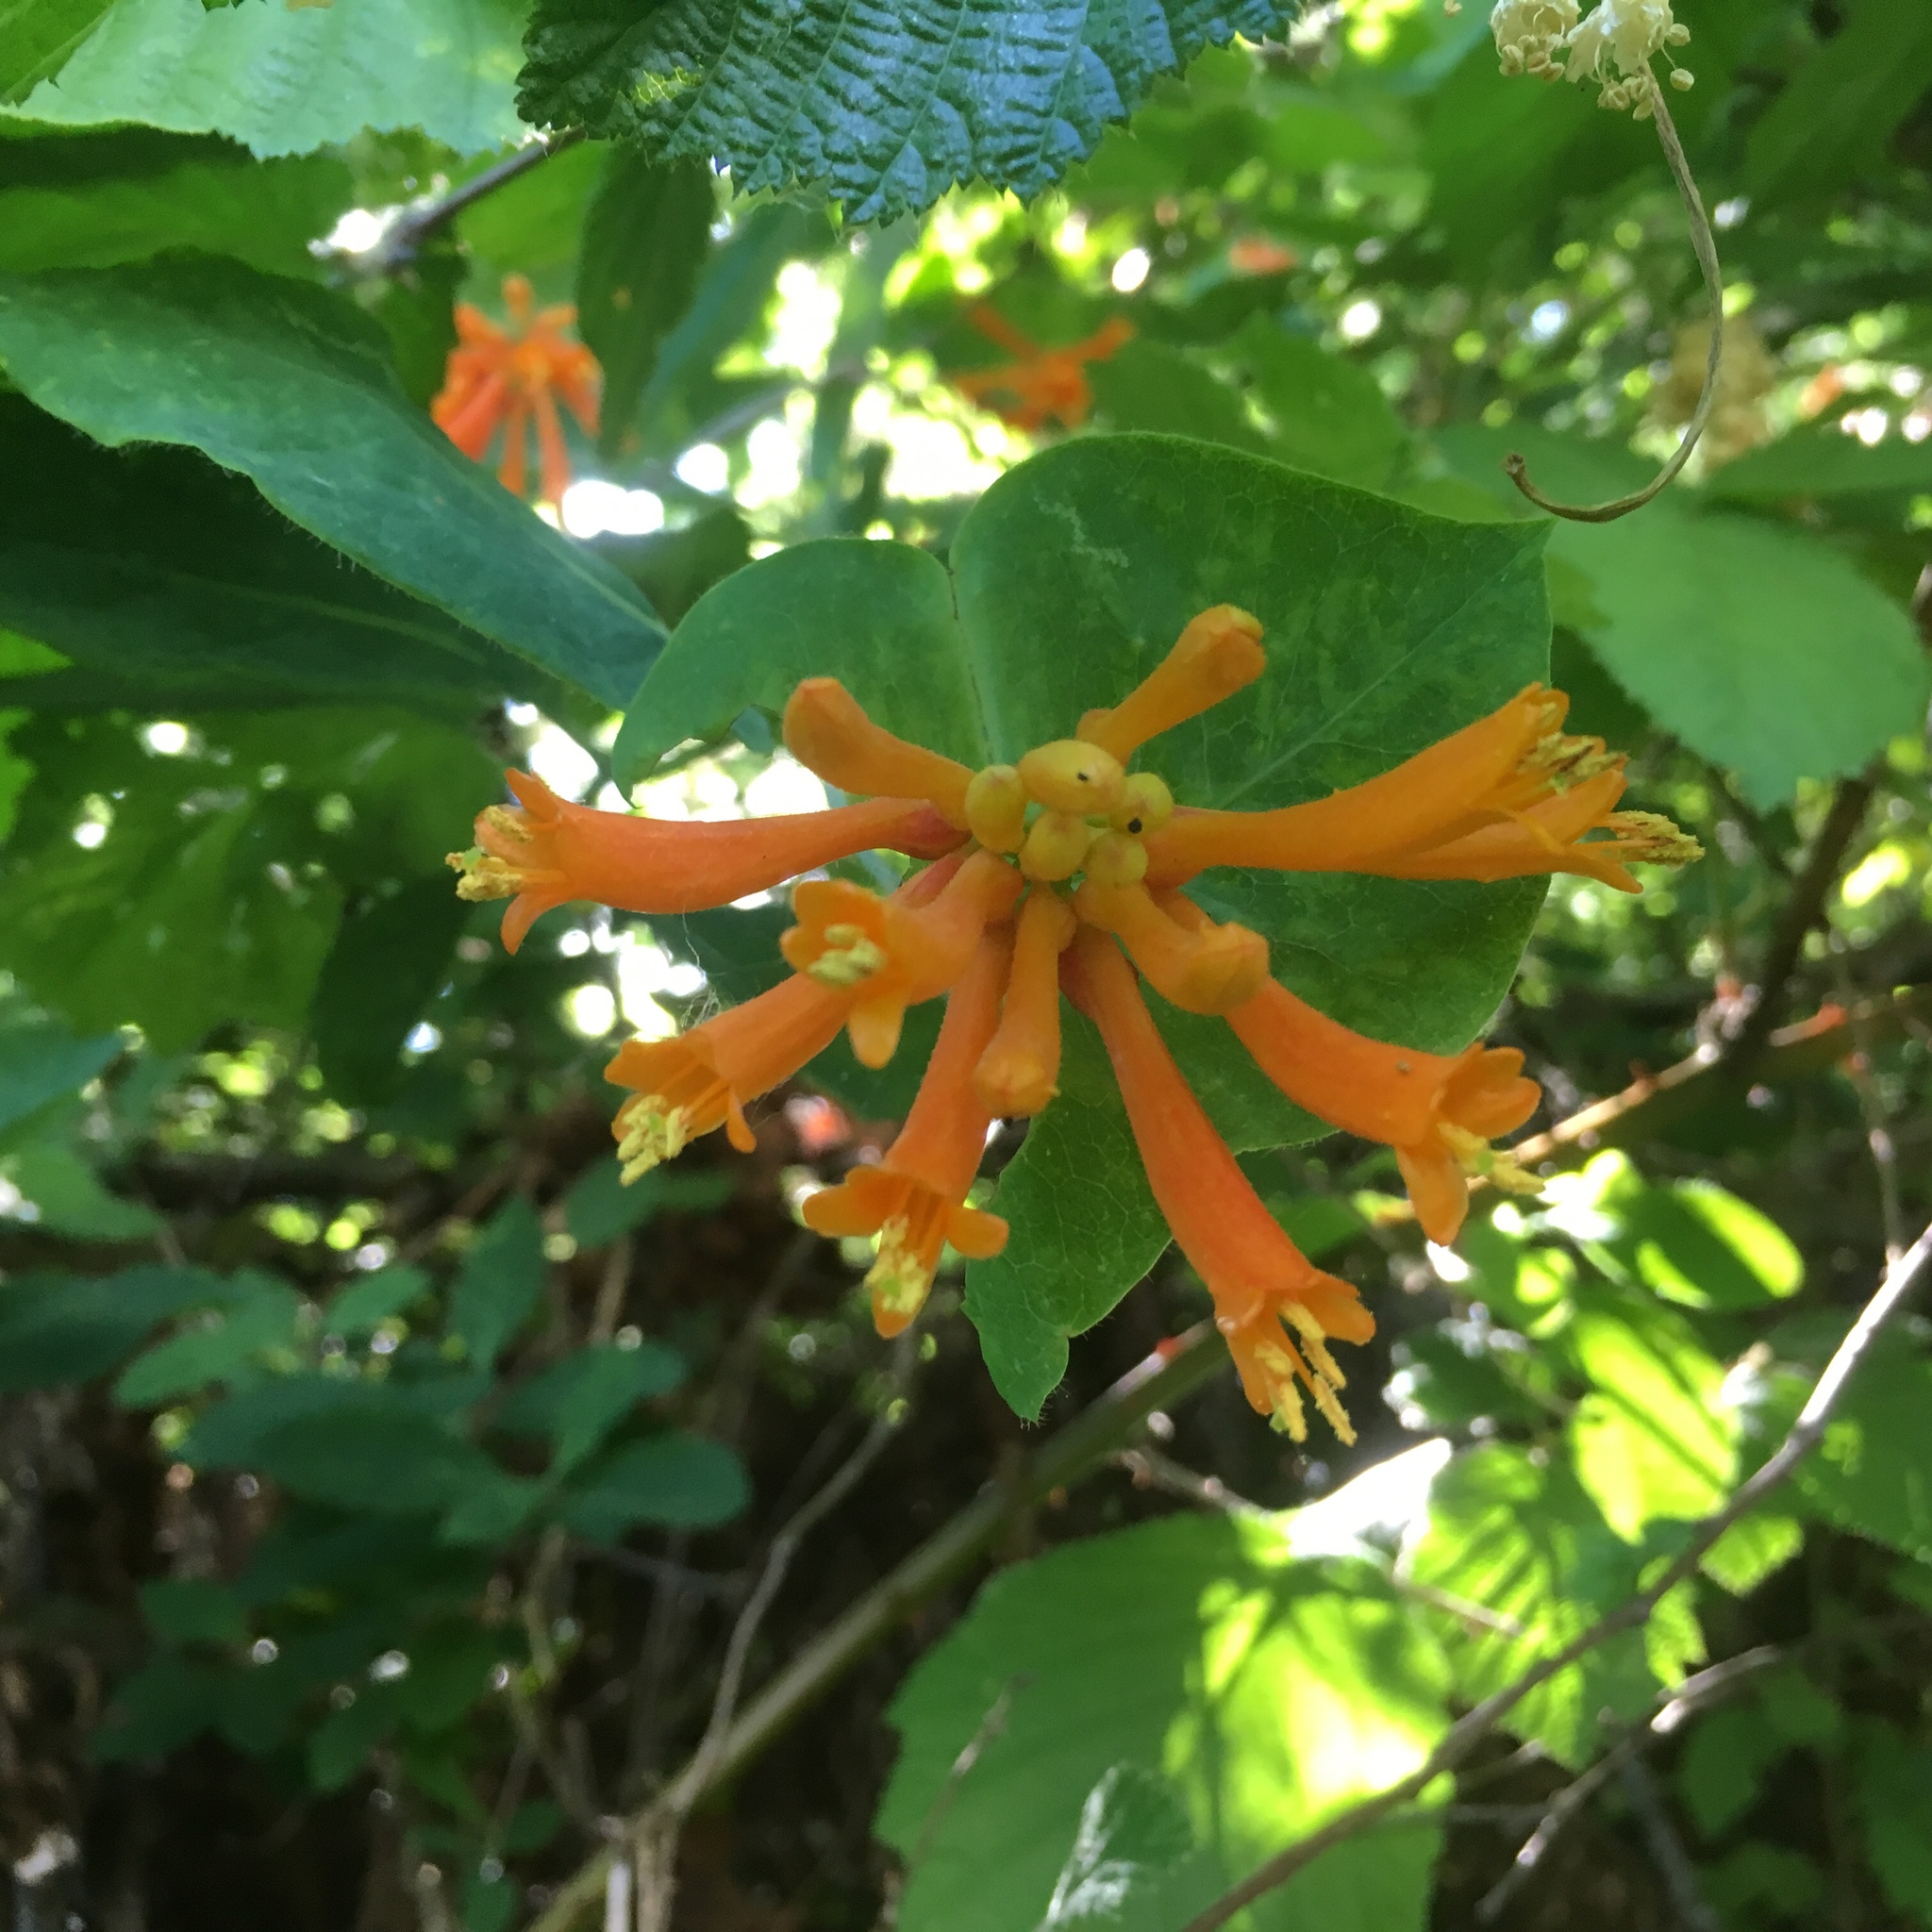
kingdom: Plantae
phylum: Tracheophyta
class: Magnoliopsida
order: Dipsacales
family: Caprifoliaceae
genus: Lonicera
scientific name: Lonicera ciliosa
